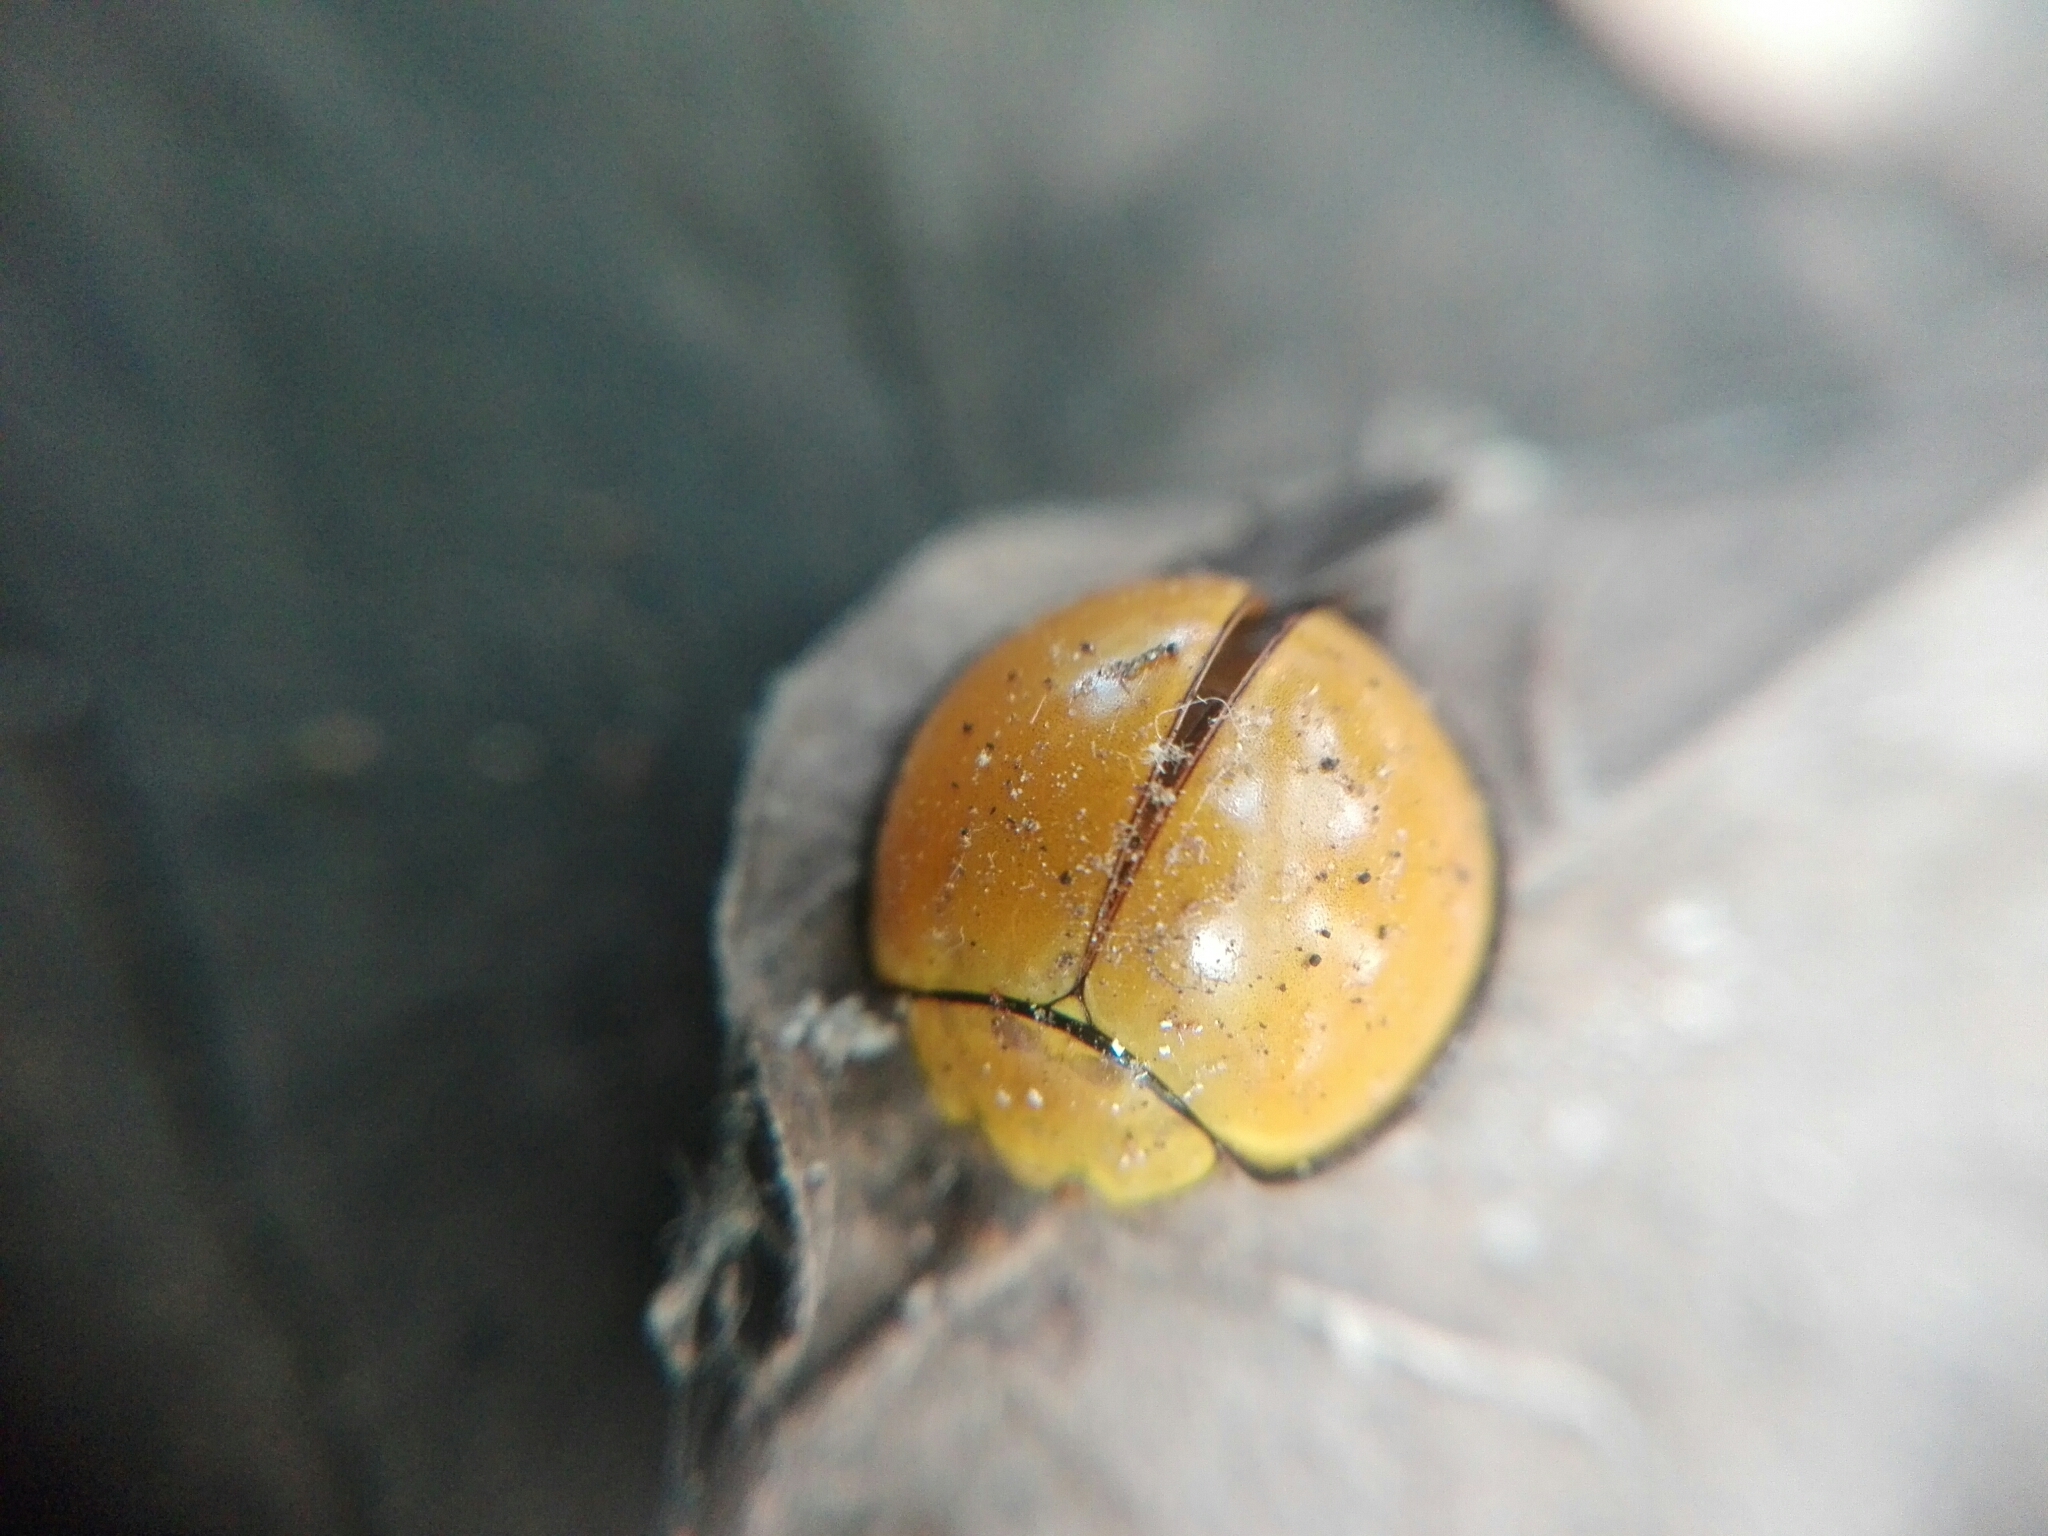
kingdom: Animalia
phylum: Arthropoda
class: Insecta
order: Coleoptera
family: Coccinellidae
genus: Neda
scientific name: Neda
